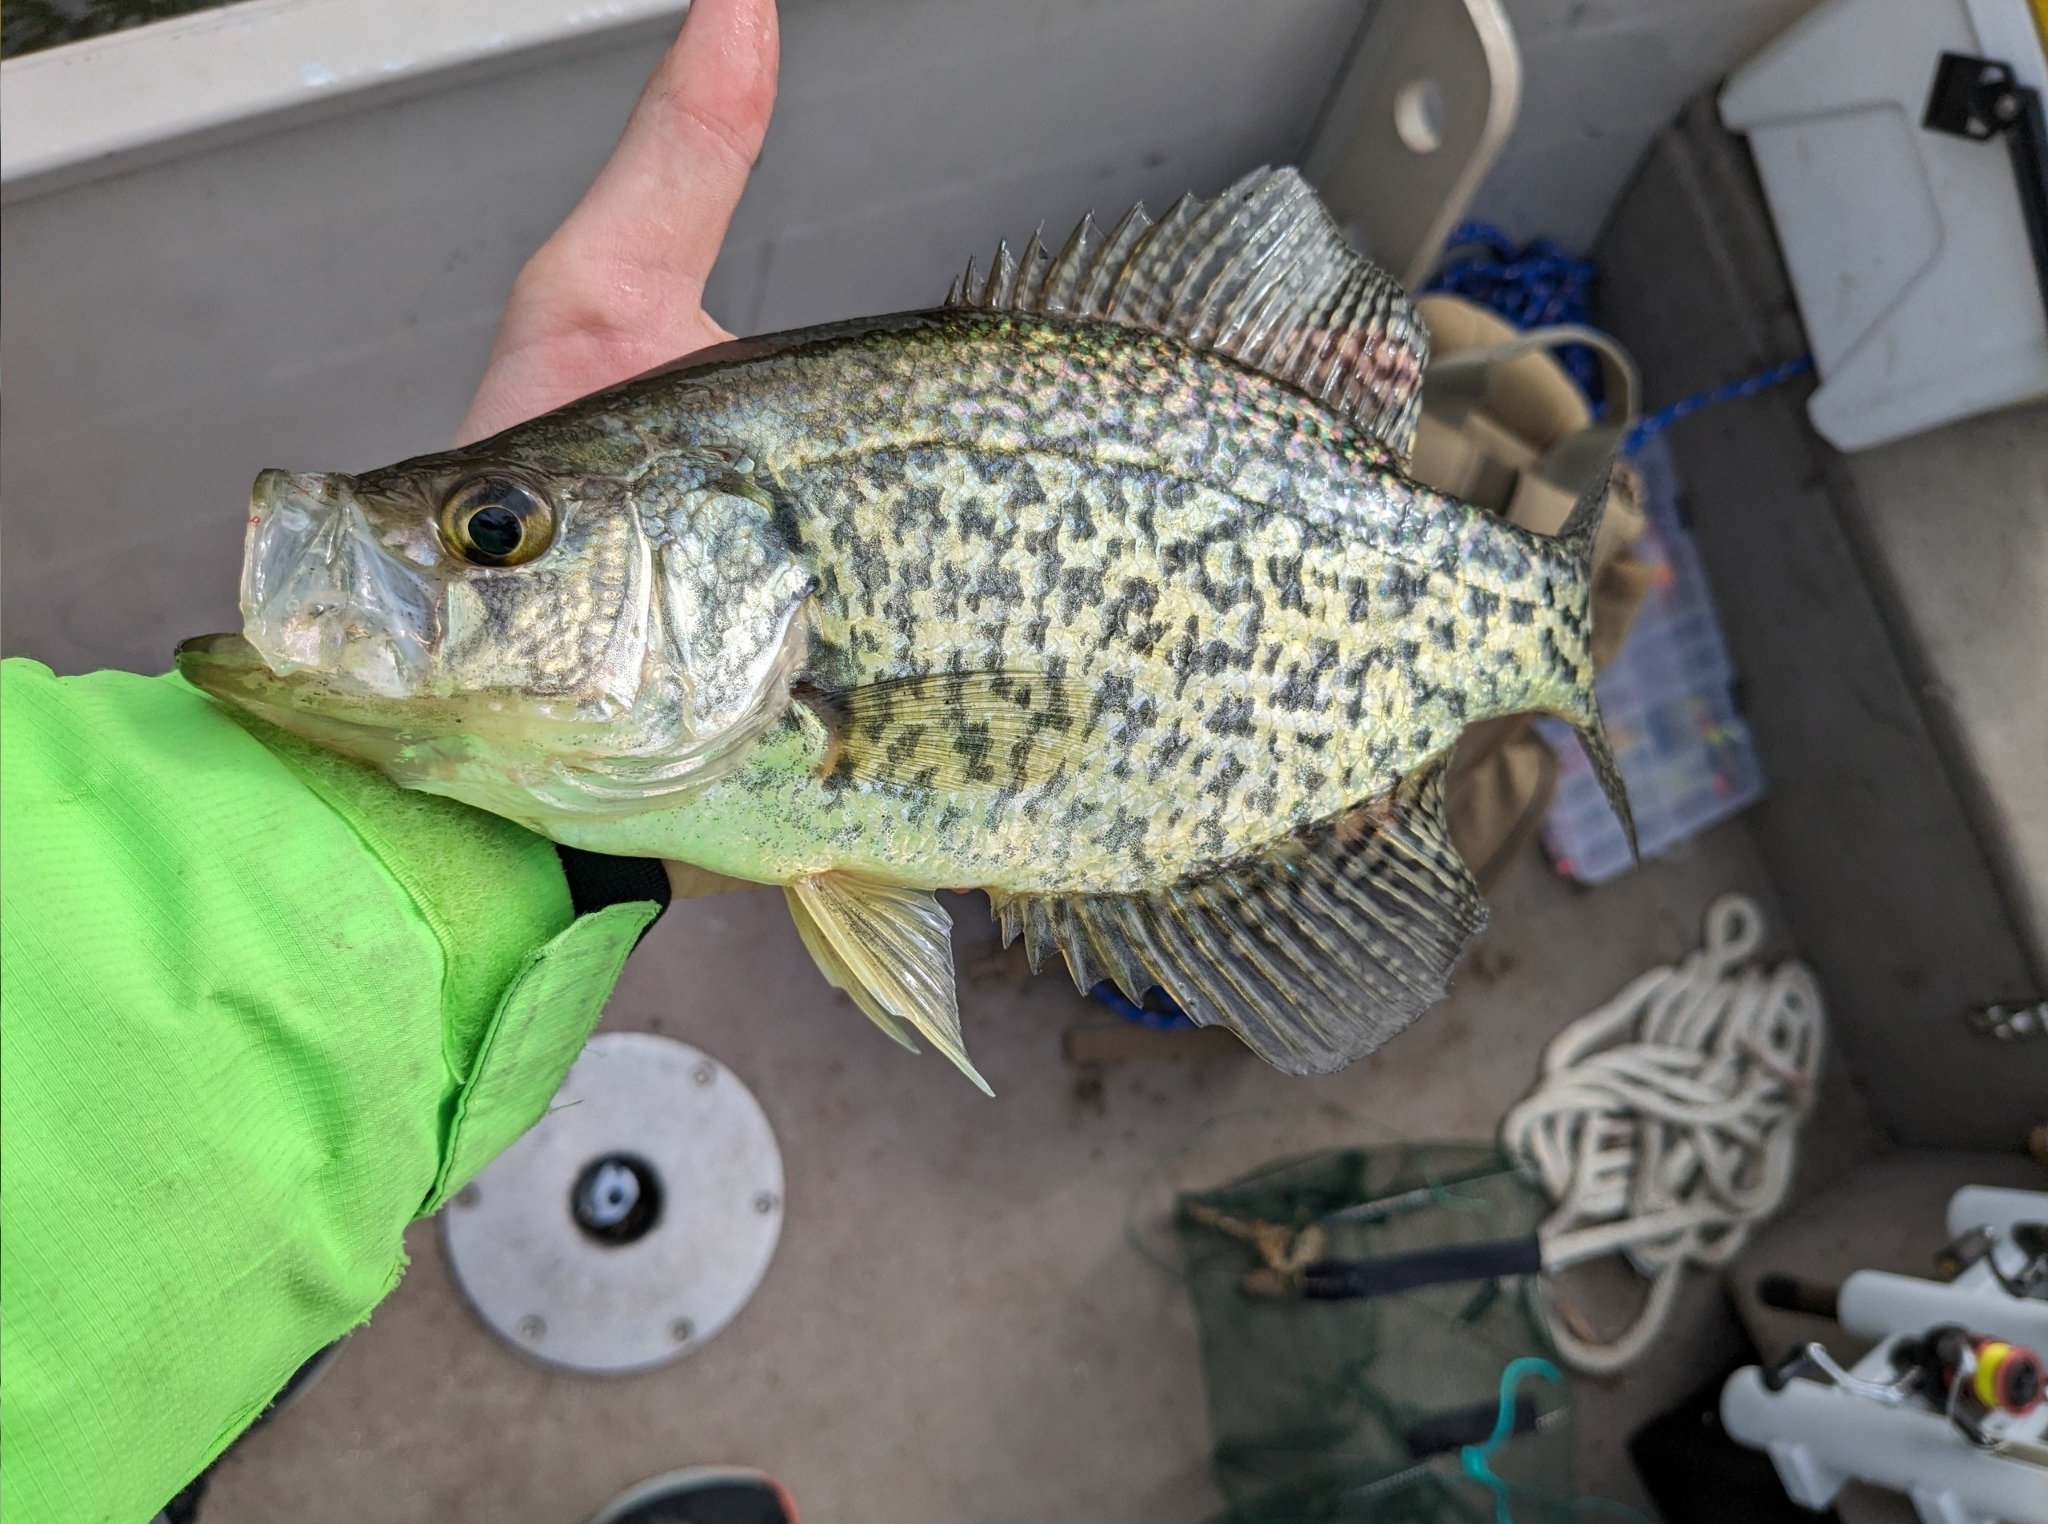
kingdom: Animalia
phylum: Chordata
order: Perciformes
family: Centrarchidae
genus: Pomoxis
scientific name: Pomoxis nigromaculatus
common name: Black crappie
